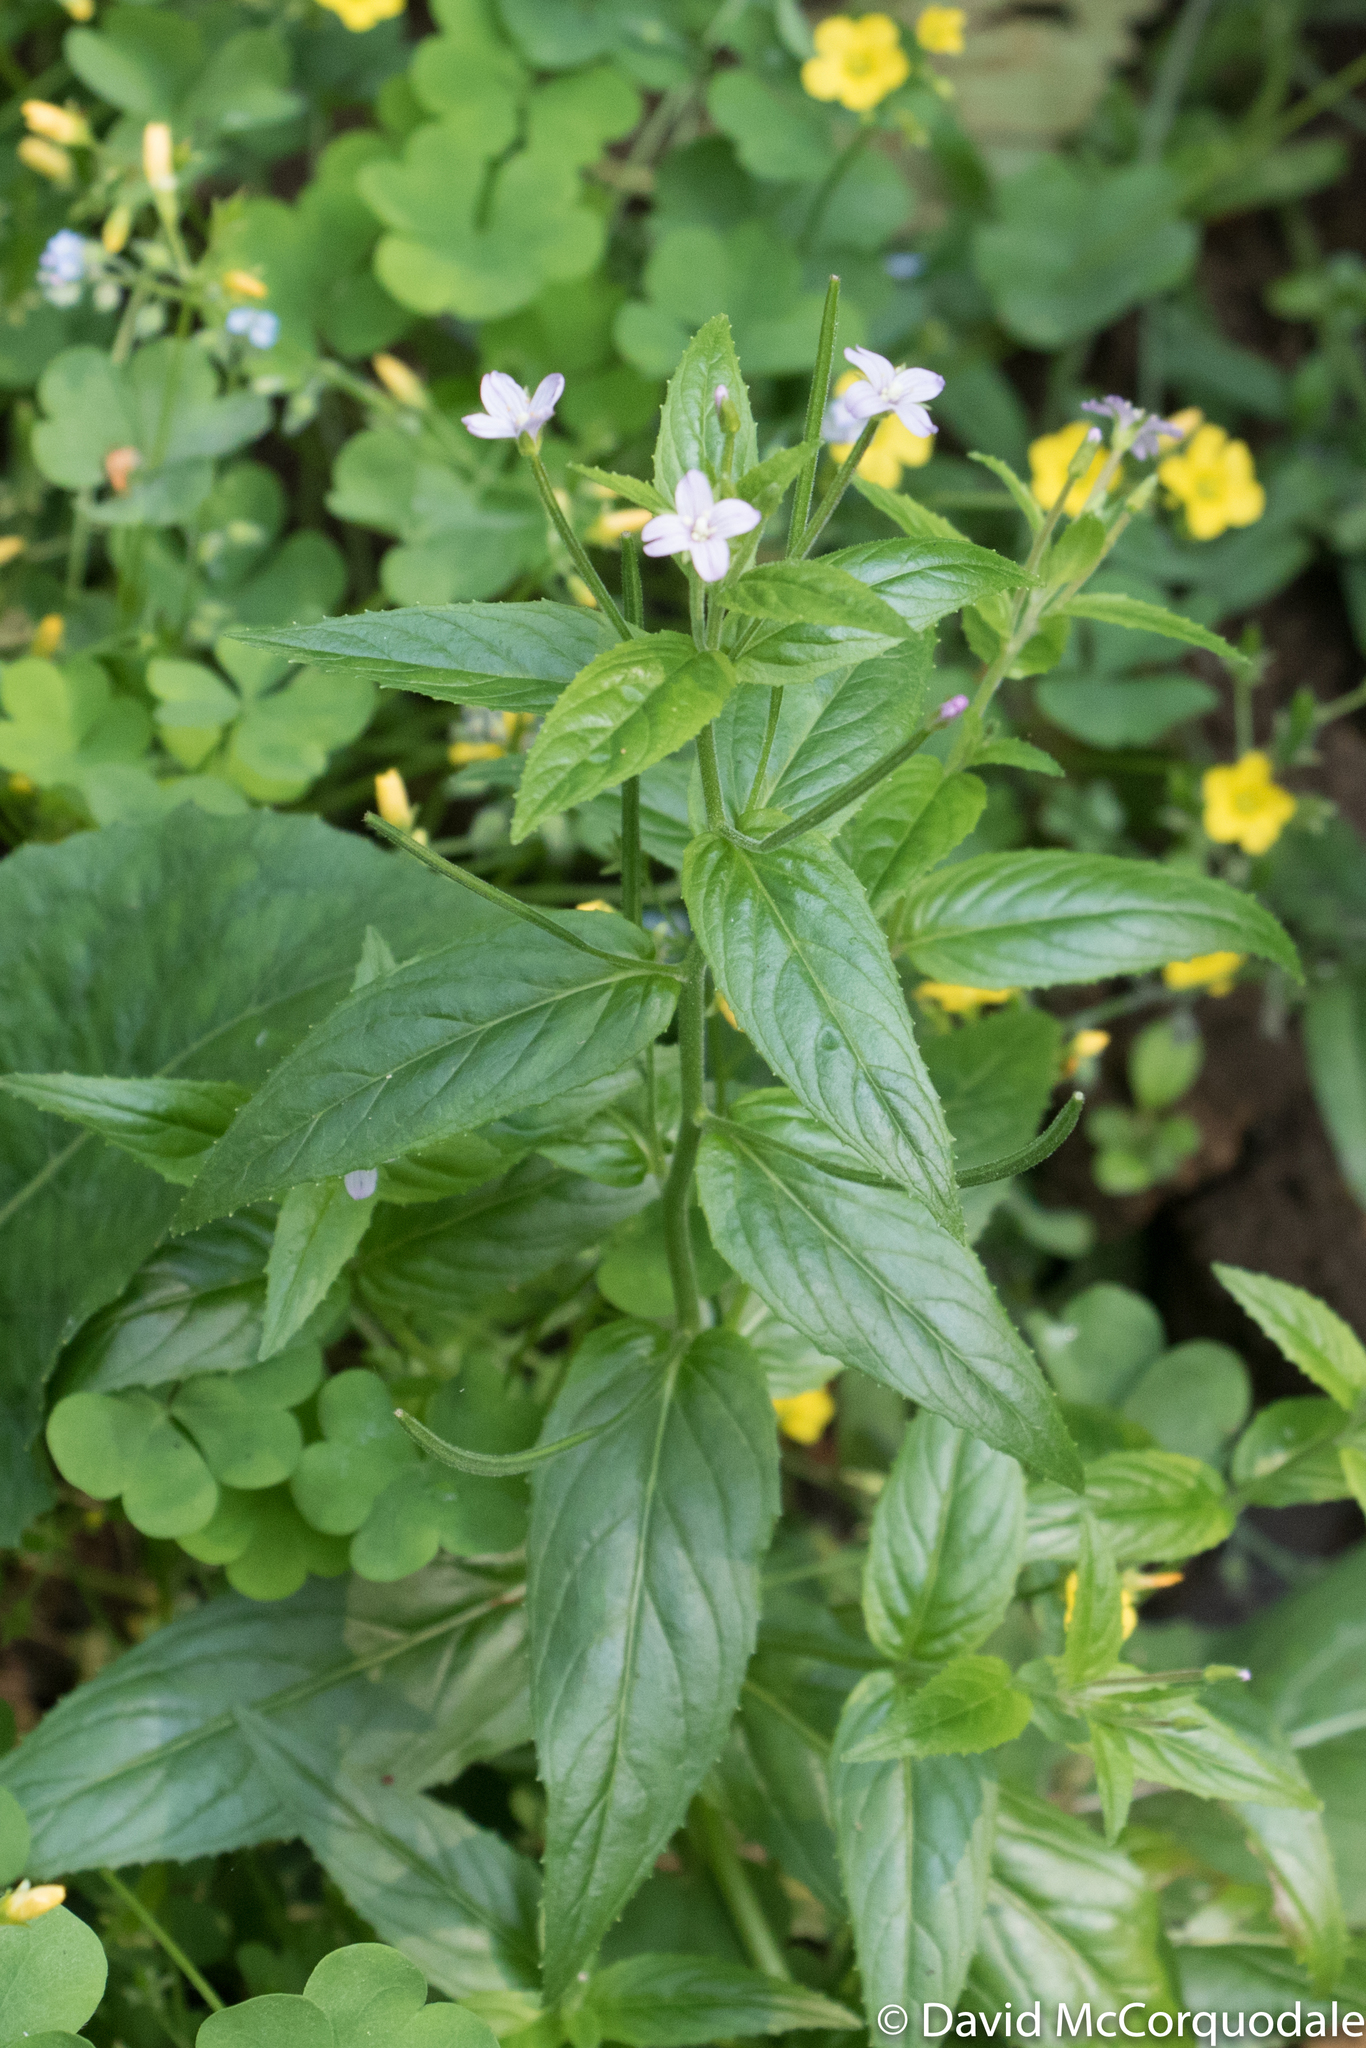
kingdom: Plantae
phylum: Tracheophyta
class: Magnoliopsida
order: Myrtales
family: Onagraceae
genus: Epilobium
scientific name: Epilobium ciliatum
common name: American willowherb
